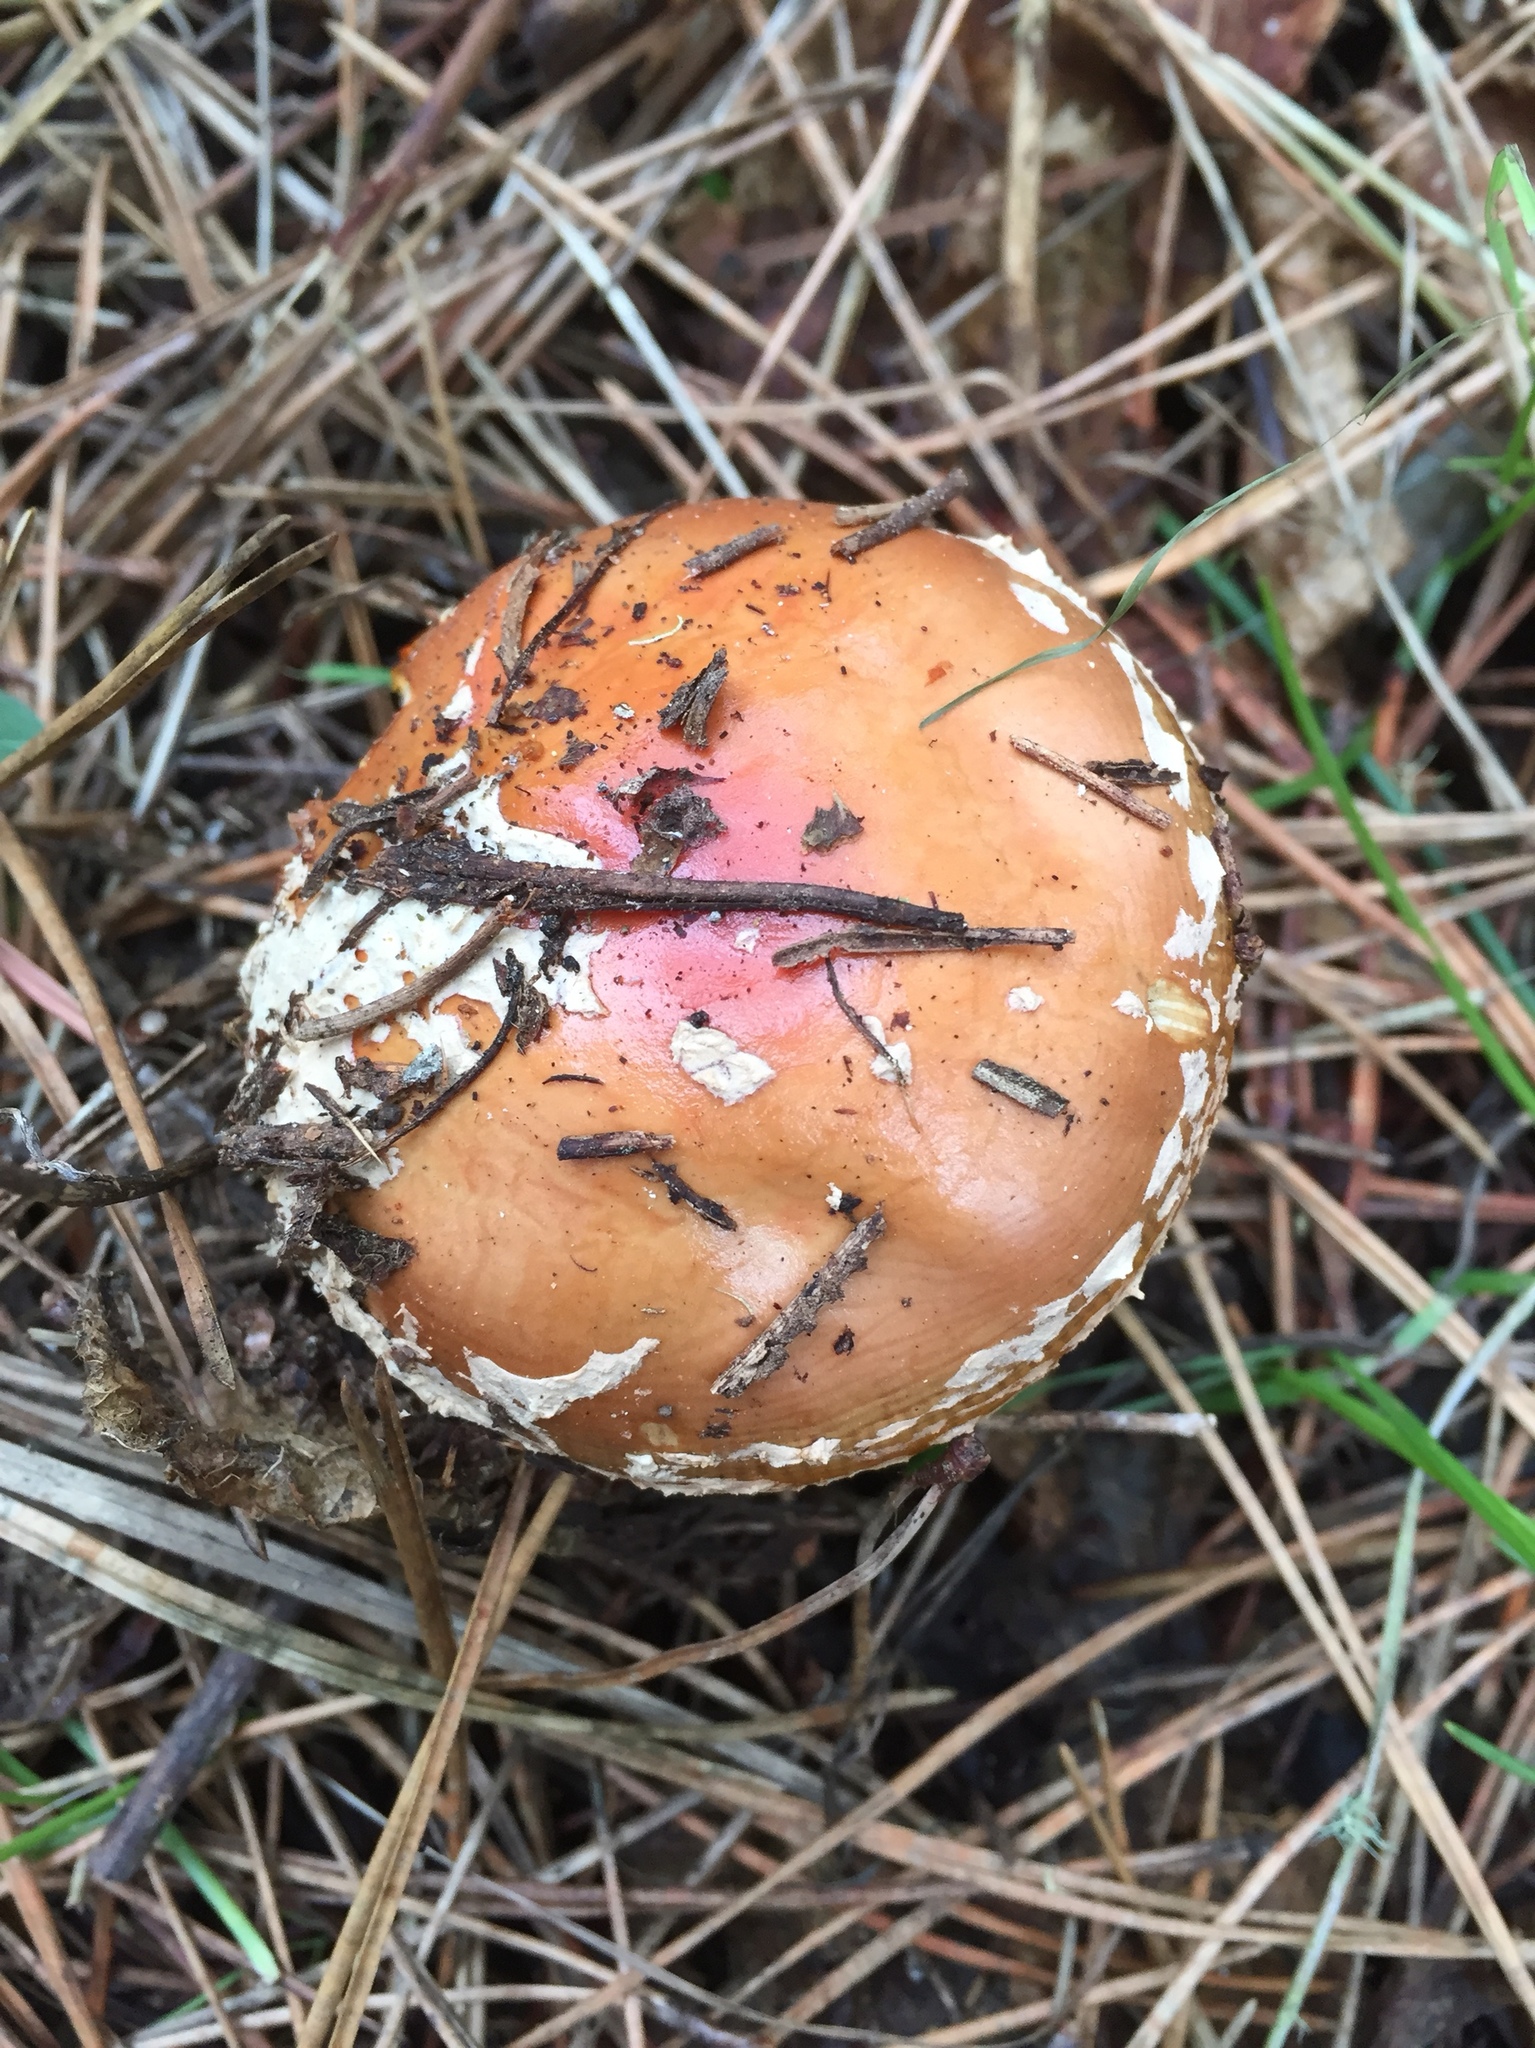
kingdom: Fungi
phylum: Basidiomycota
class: Agaricomycetes
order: Agaricales
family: Amanitaceae
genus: Amanita
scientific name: Amanita muscaria
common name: Fly agaric
